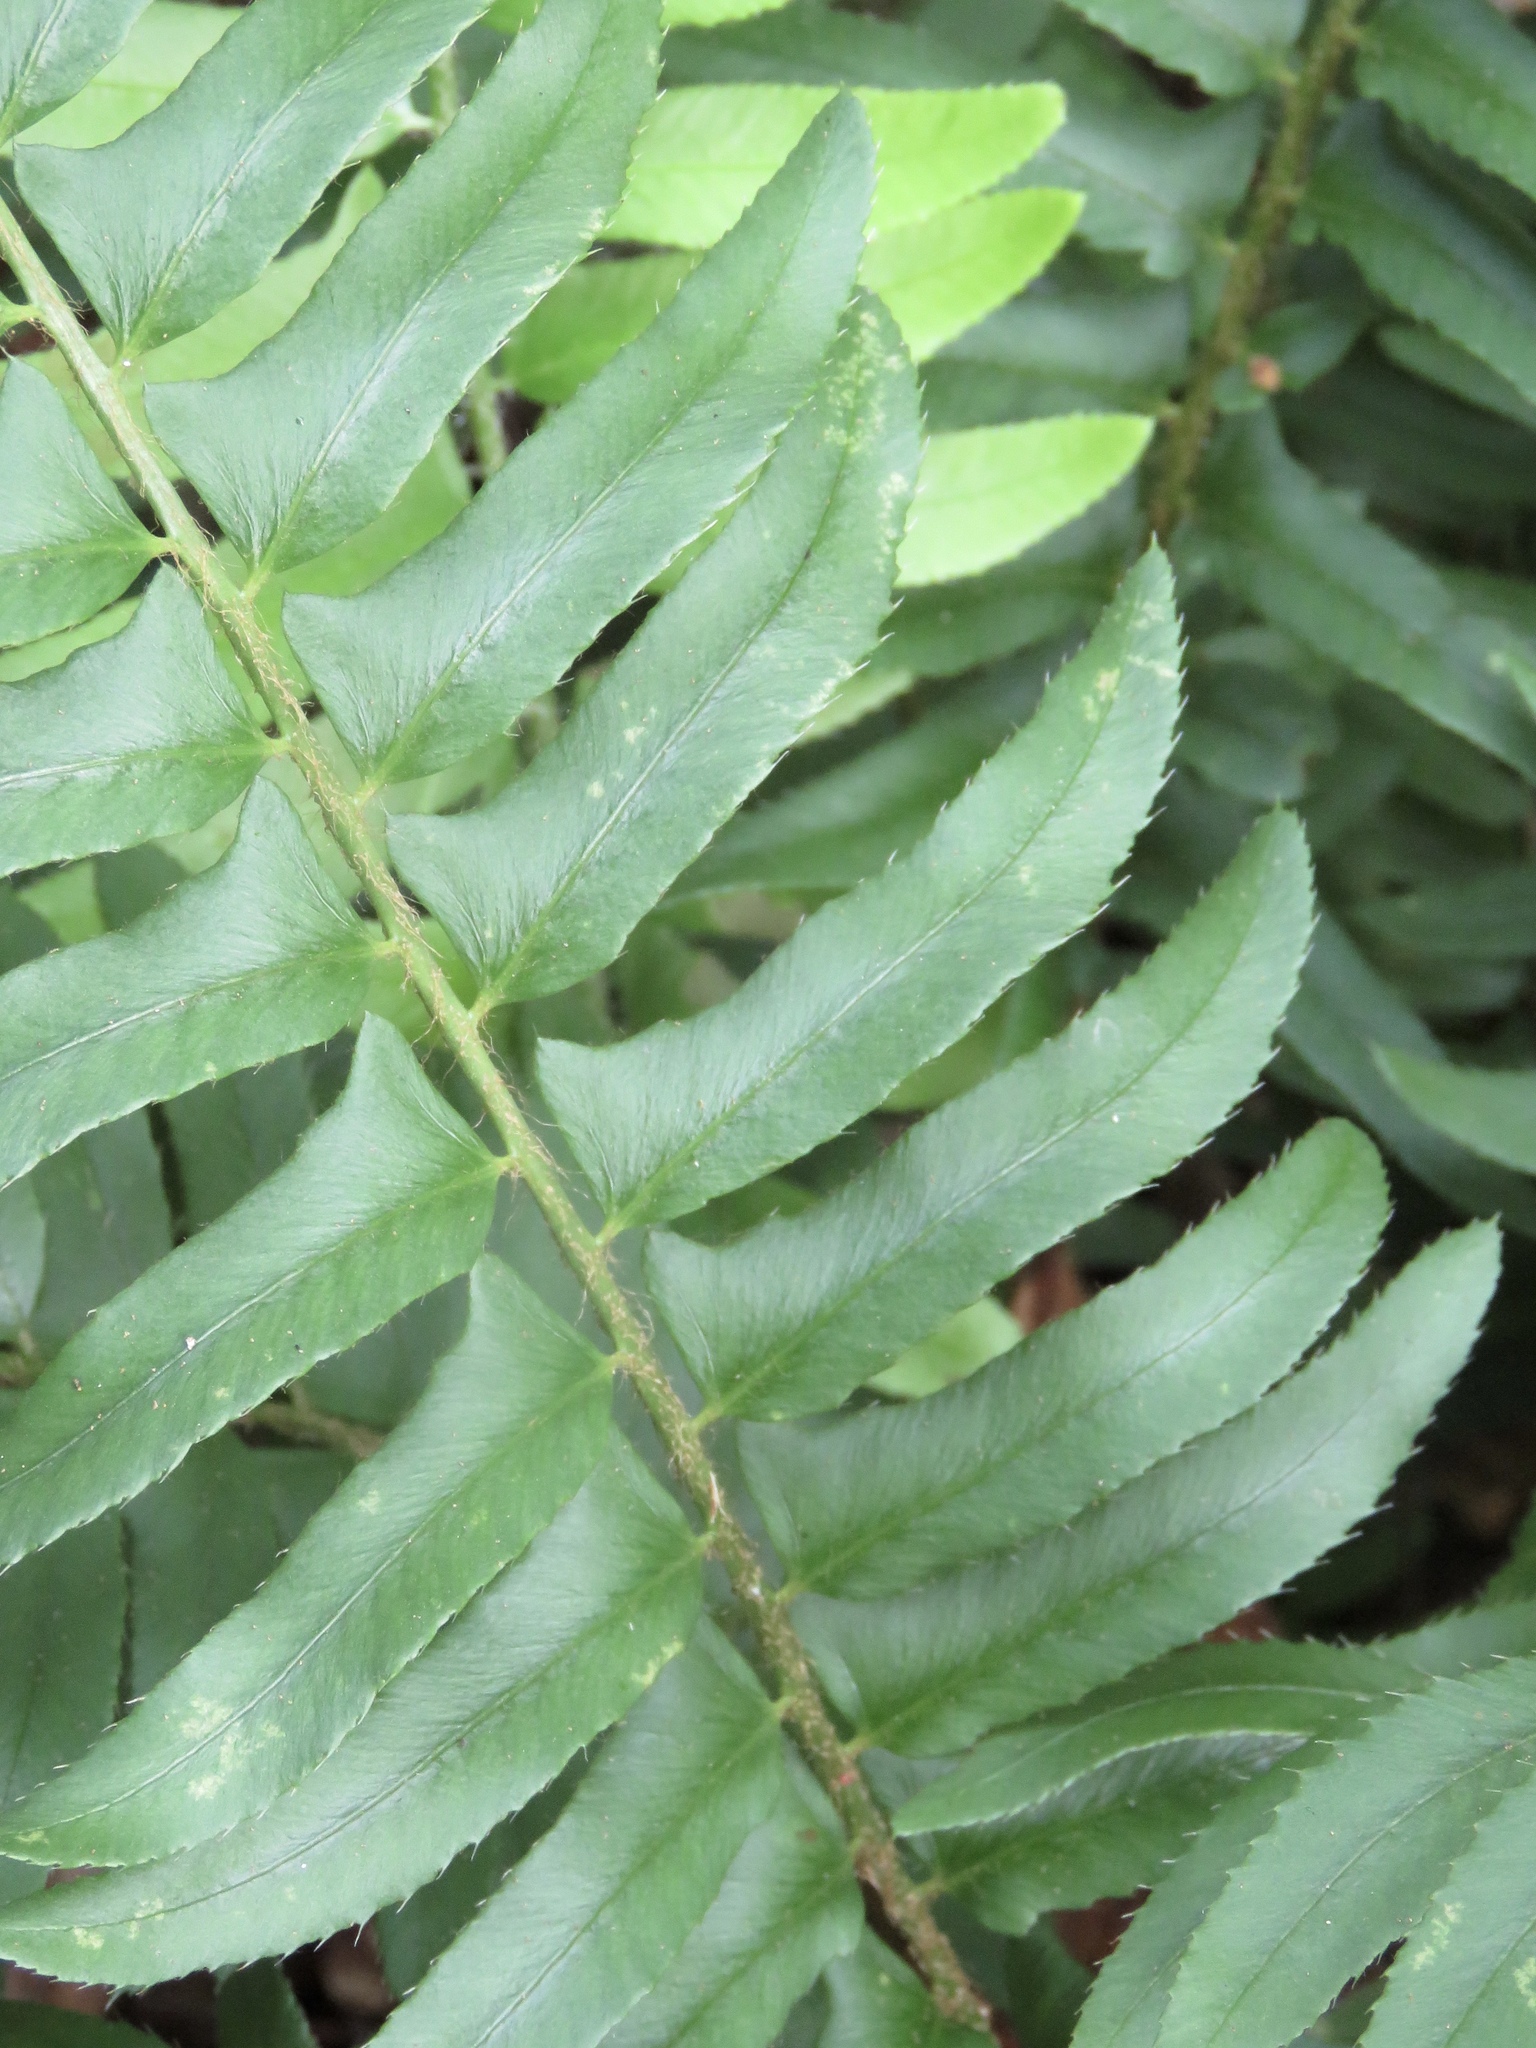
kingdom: Plantae
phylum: Tracheophyta
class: Polypodiopsida
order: Polypodiales
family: Dryopteridaceae
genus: Polystichum
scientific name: Polystichum acrostichoides
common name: Christmas fern
